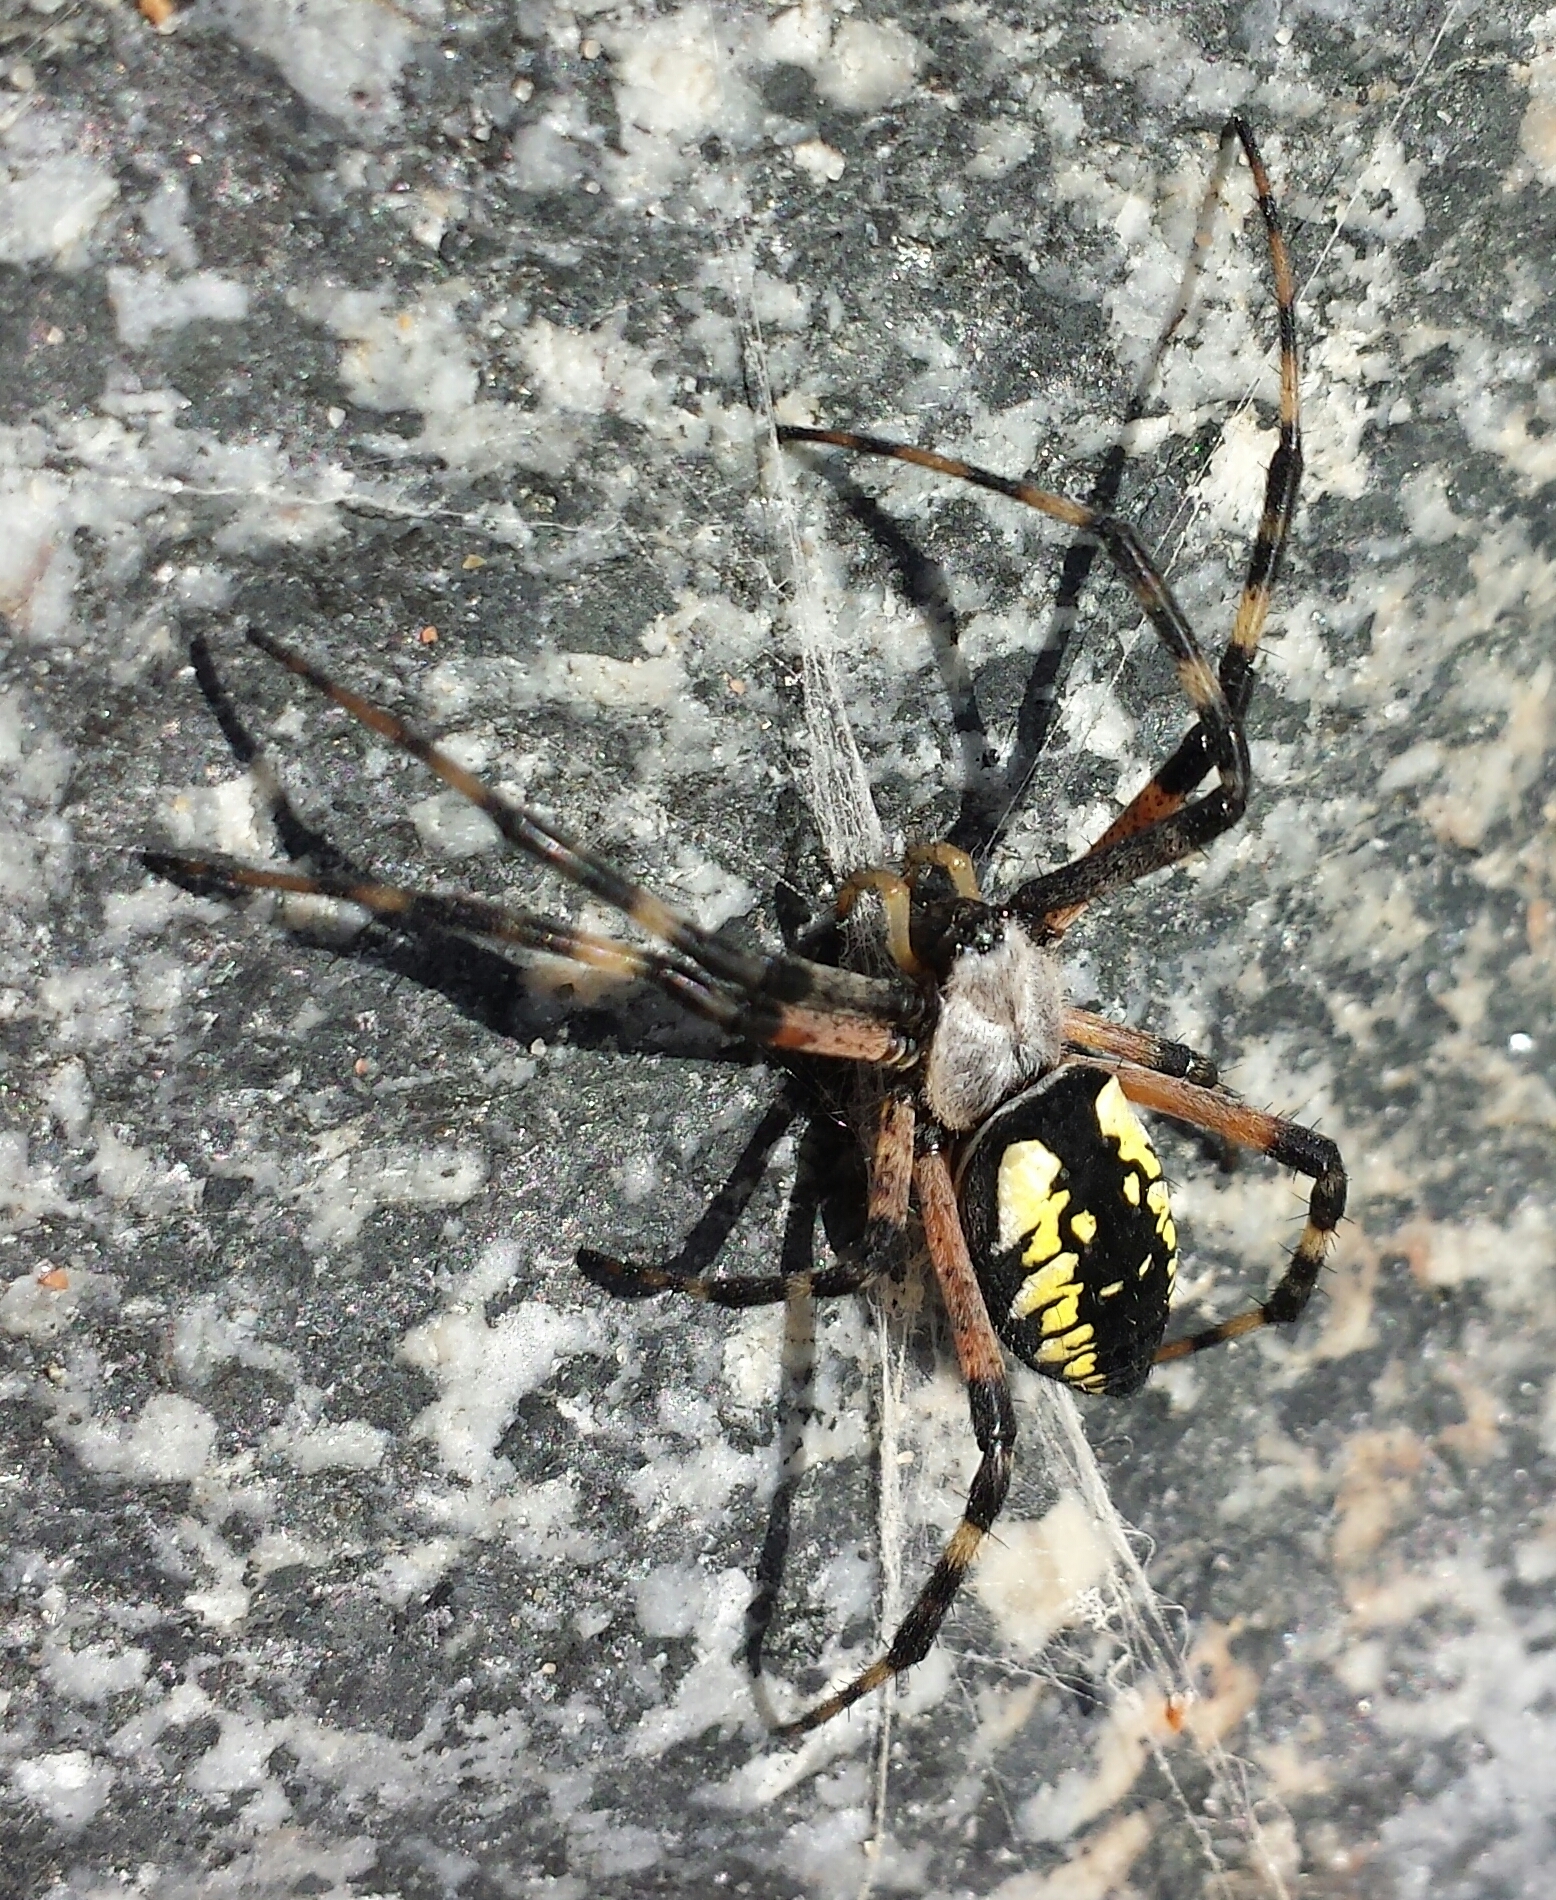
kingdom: Animalia
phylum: Arthropoda
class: Arachnida
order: Araneae
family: Araneidae
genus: Argiope
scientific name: Argiope aurantia
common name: Orb weavers
